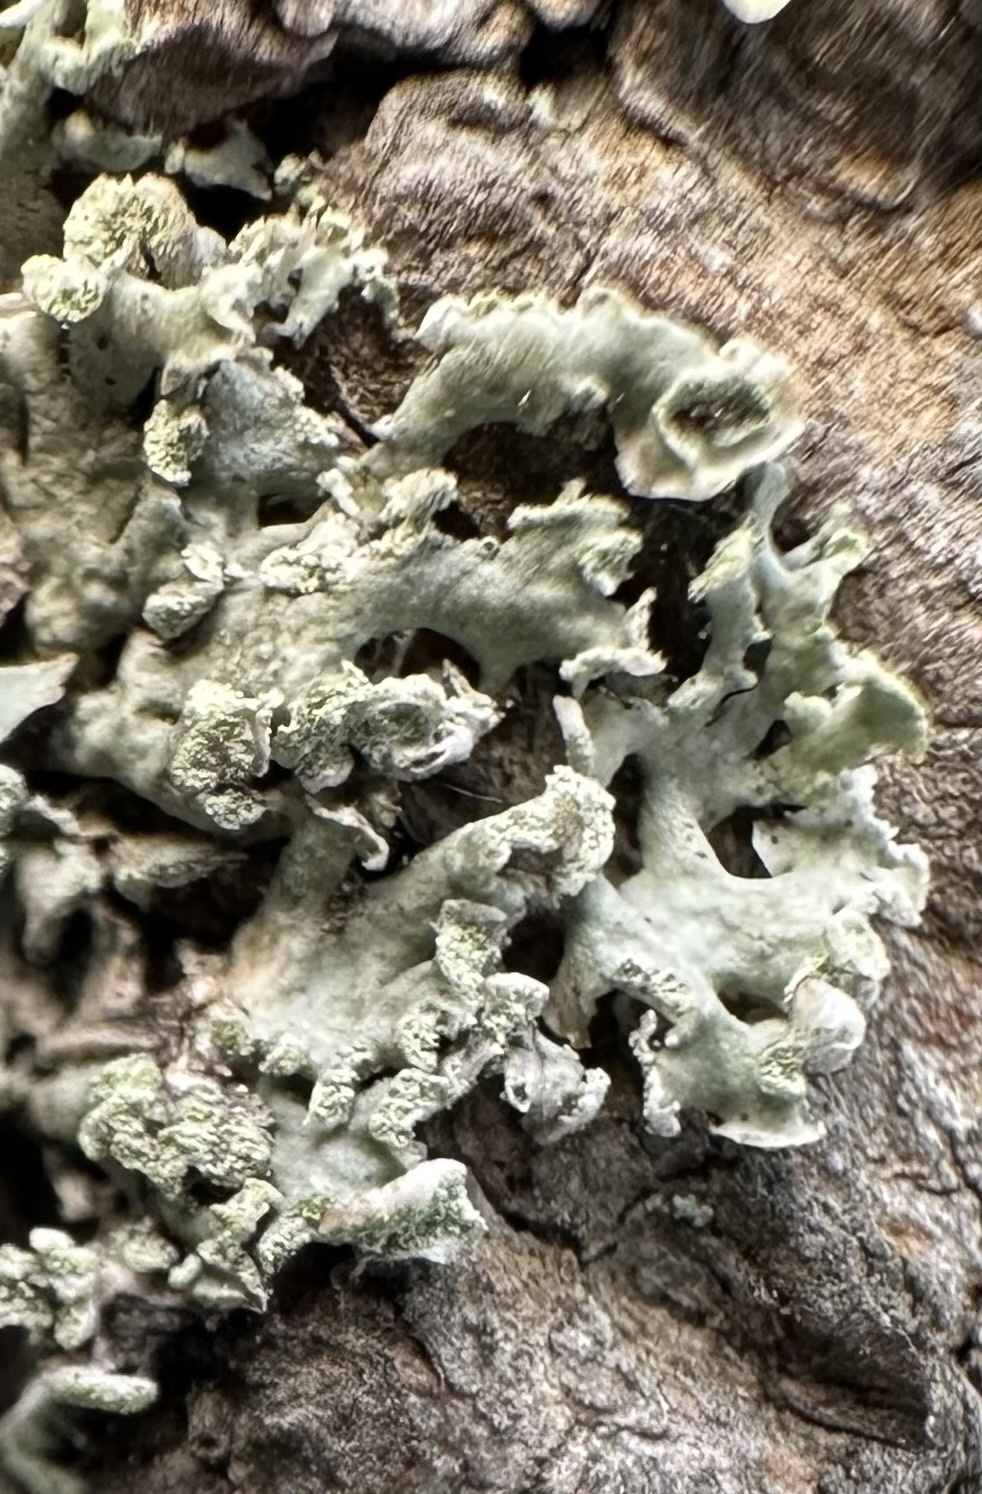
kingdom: Fungi
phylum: Ascomycota
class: Lecanoromycetes
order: Lecanorales
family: Parmeliaceae
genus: Hypogymnia
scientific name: Hypogymnia physodes
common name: Dark crottle
